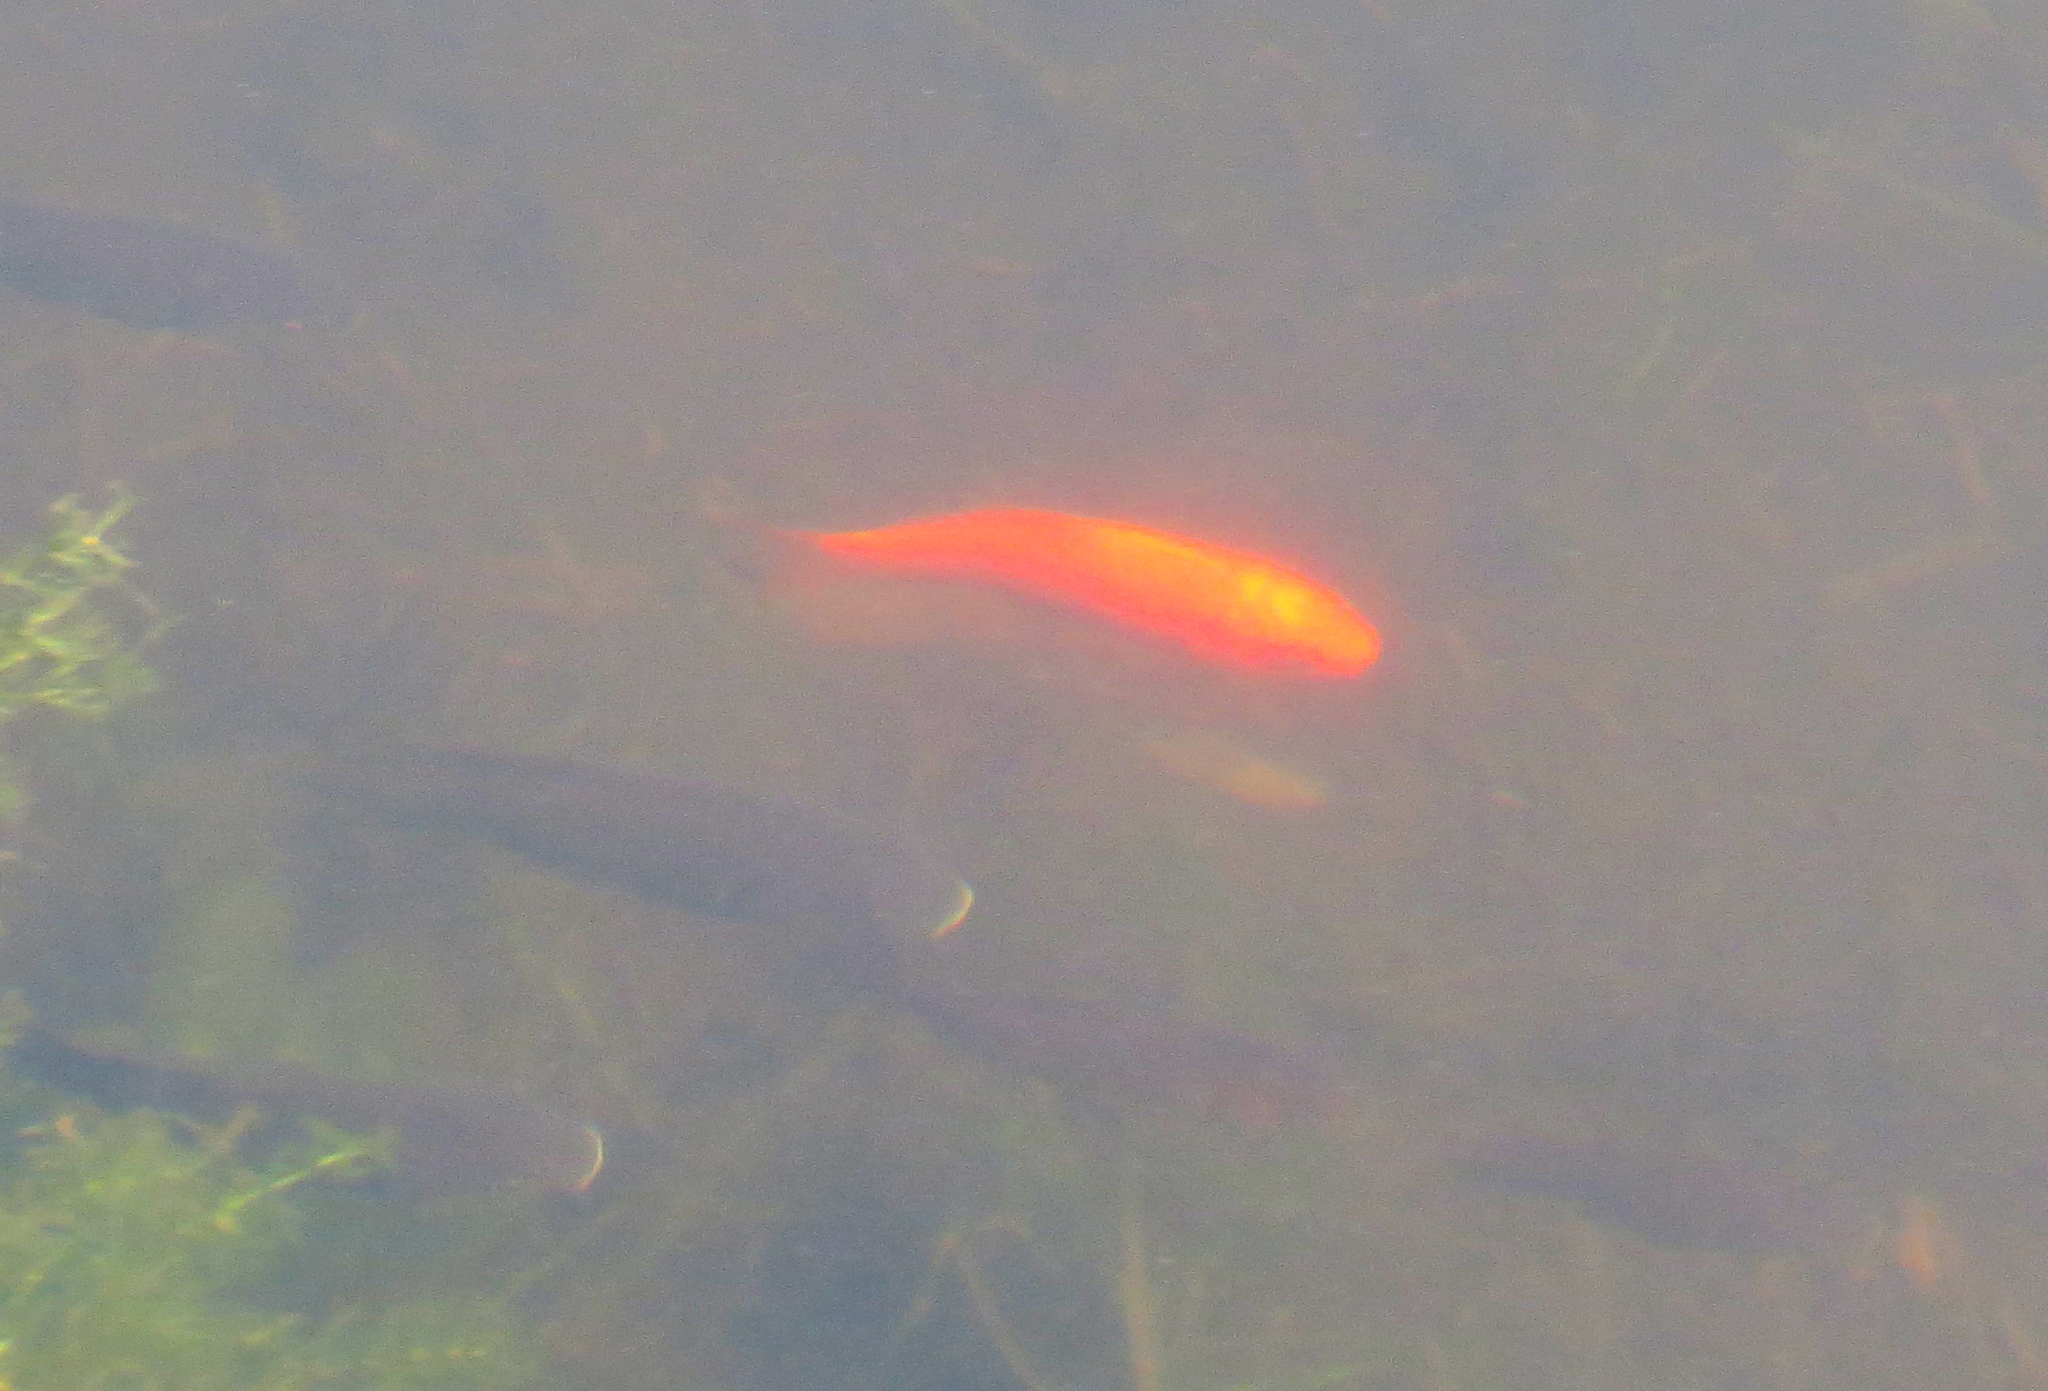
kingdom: Animalia
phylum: Chordata
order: Cypriniformes
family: Cyprinidae
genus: Carassius
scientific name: Carassius auratus
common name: Goldfish
